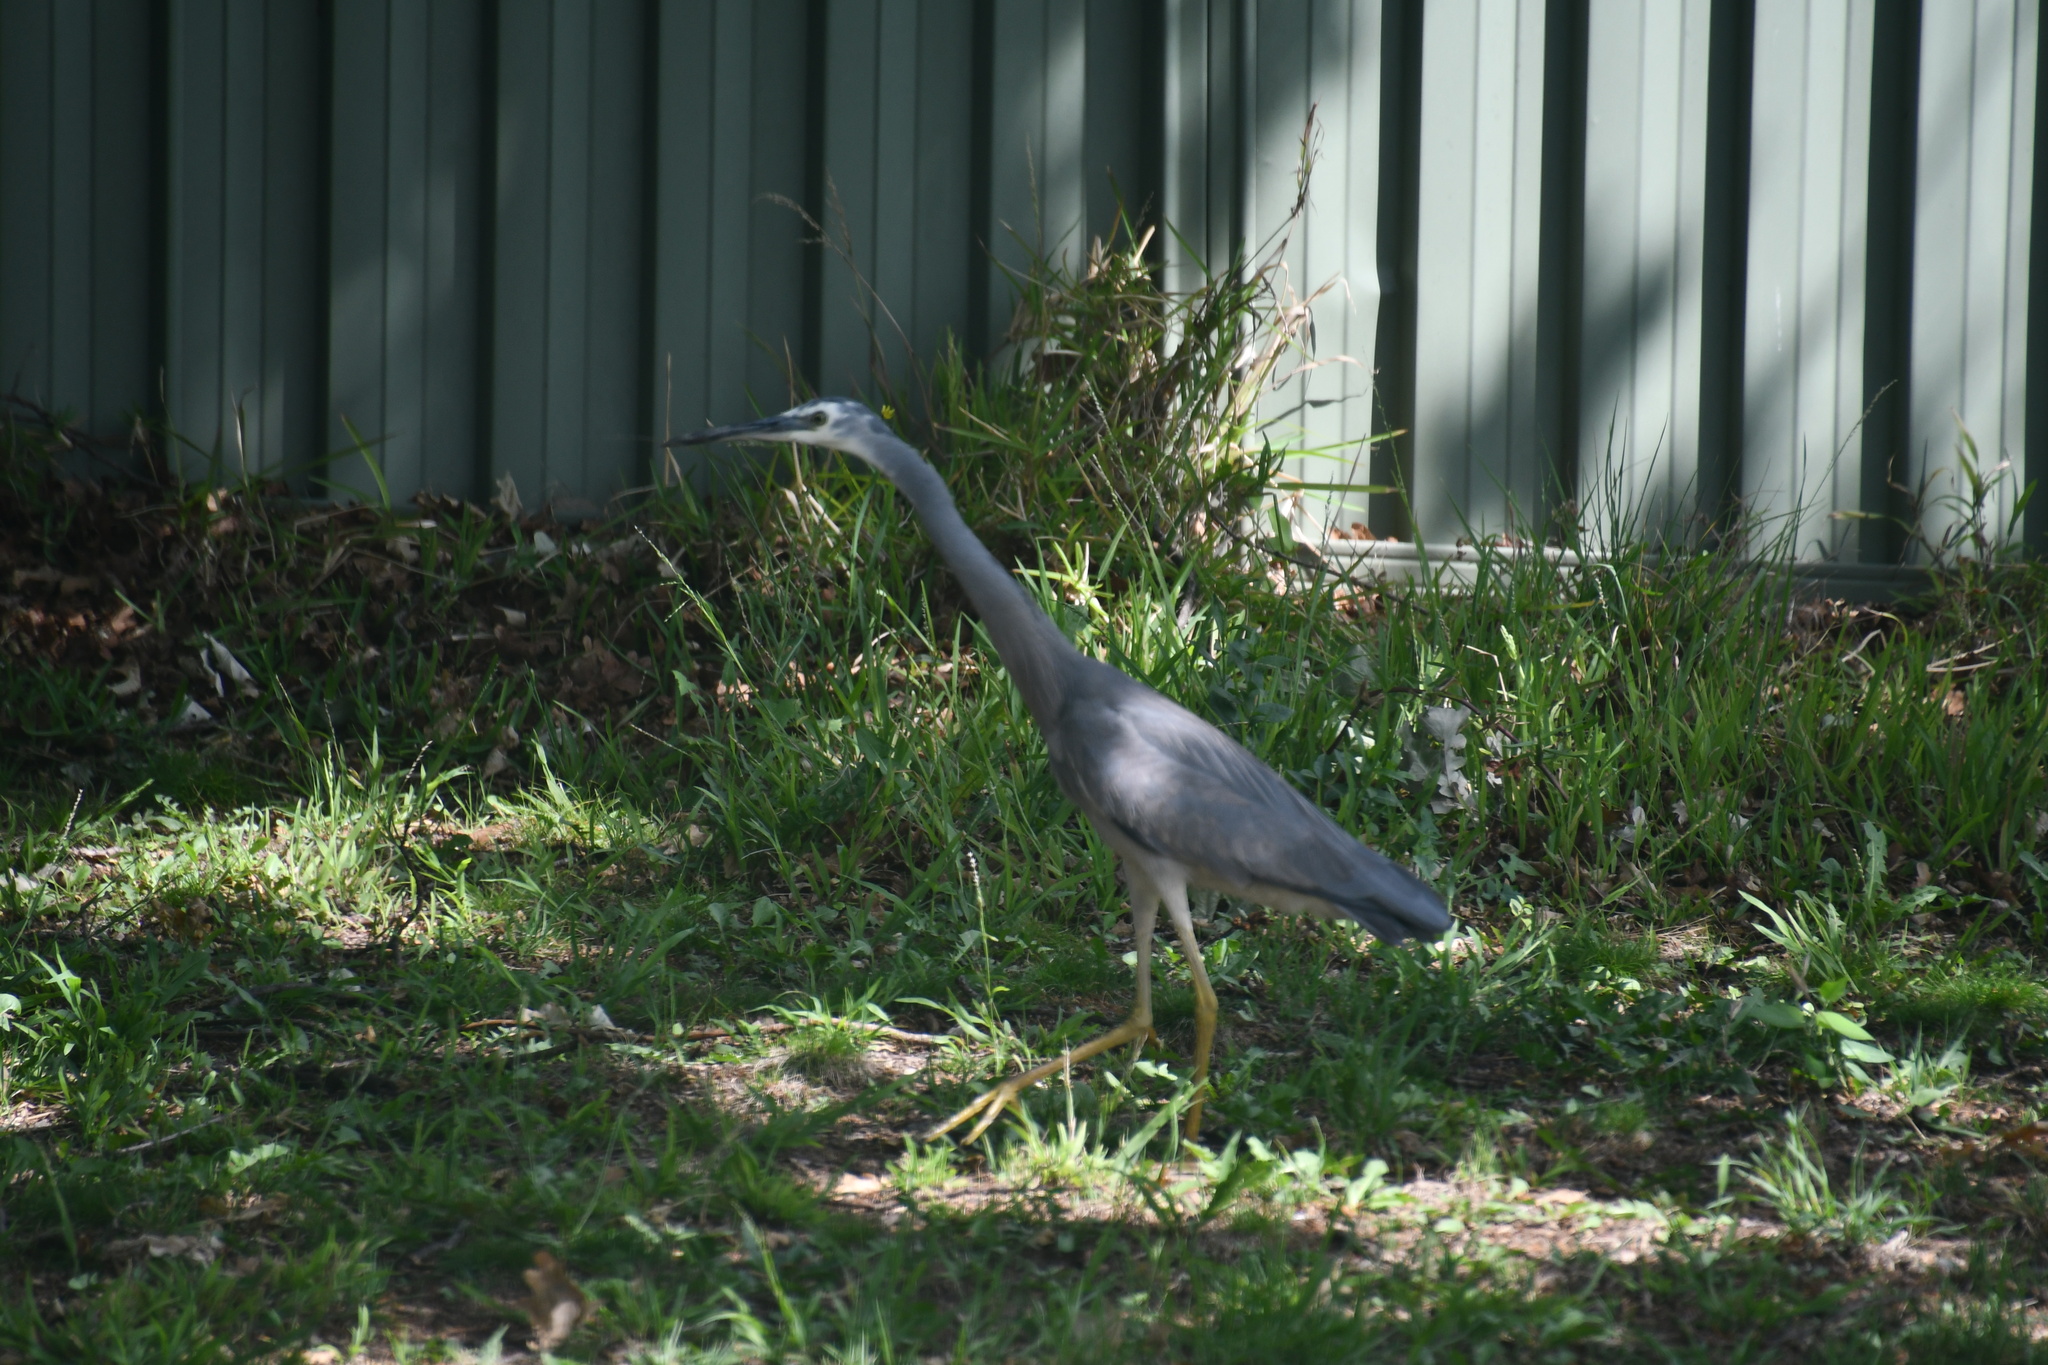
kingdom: Animalia
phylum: Chordata
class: Aves
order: Pelecaniformes
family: Ardeidae
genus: Egretta
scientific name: Egretta novaehollandiae
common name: White-faced heron
